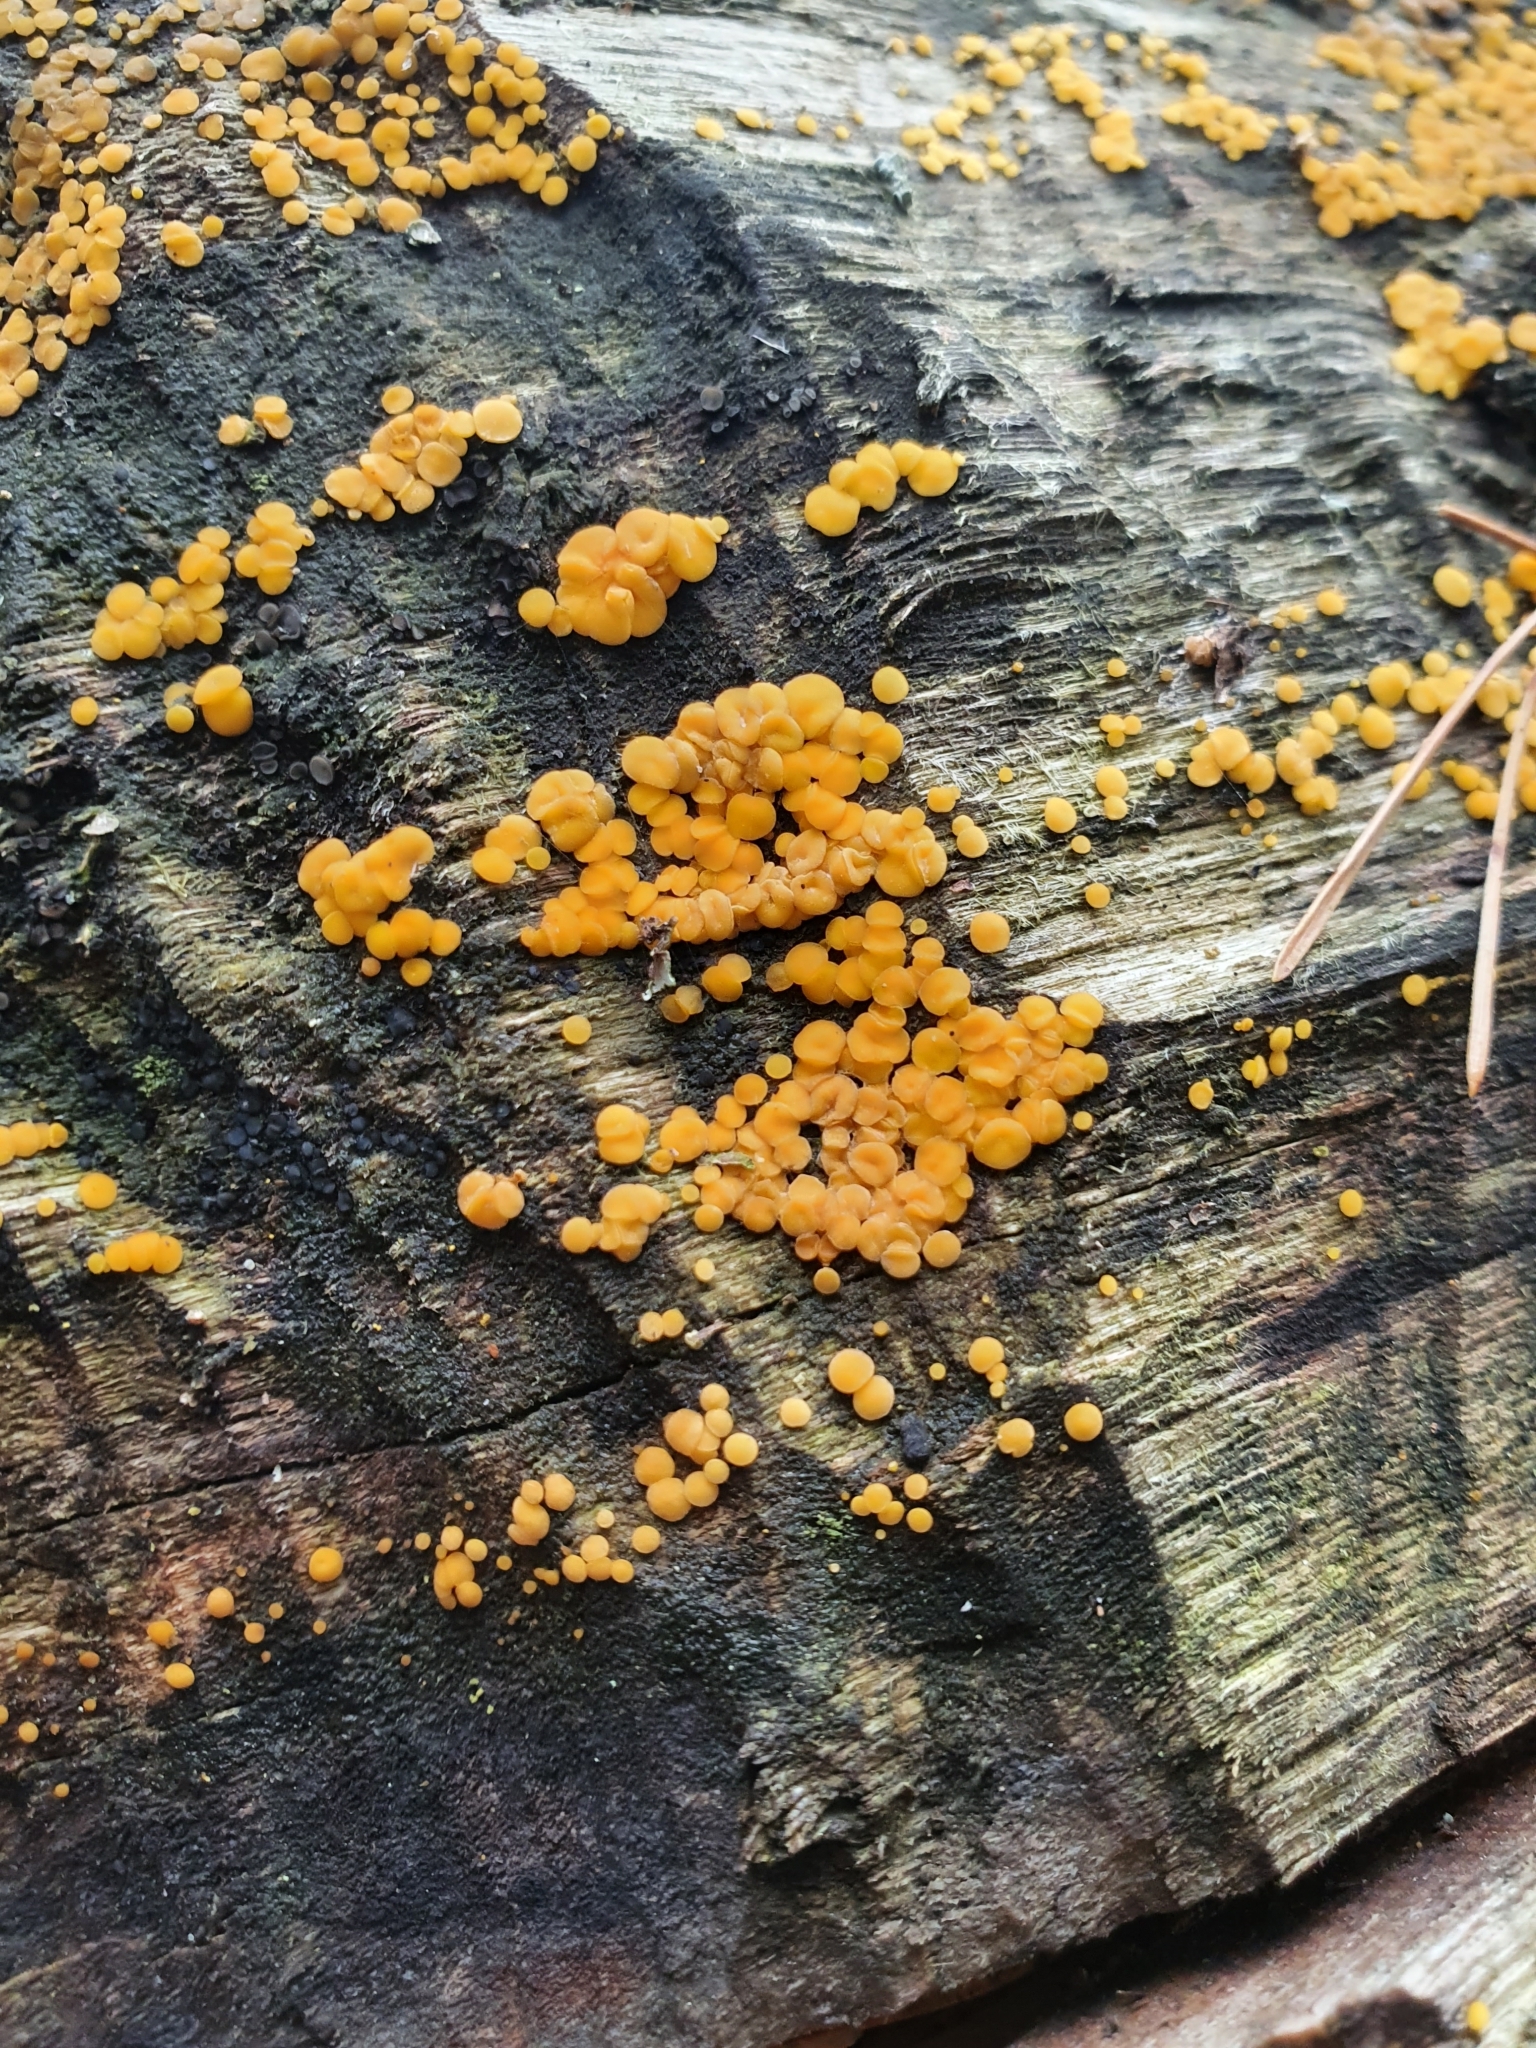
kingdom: Fungi
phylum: Basidiomycota
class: Dacrymycetes
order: Dacrymycetales
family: Dacrymycetaceae
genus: Dacrymyces
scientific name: Dacrymyces stillatus
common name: Common jelly spot
